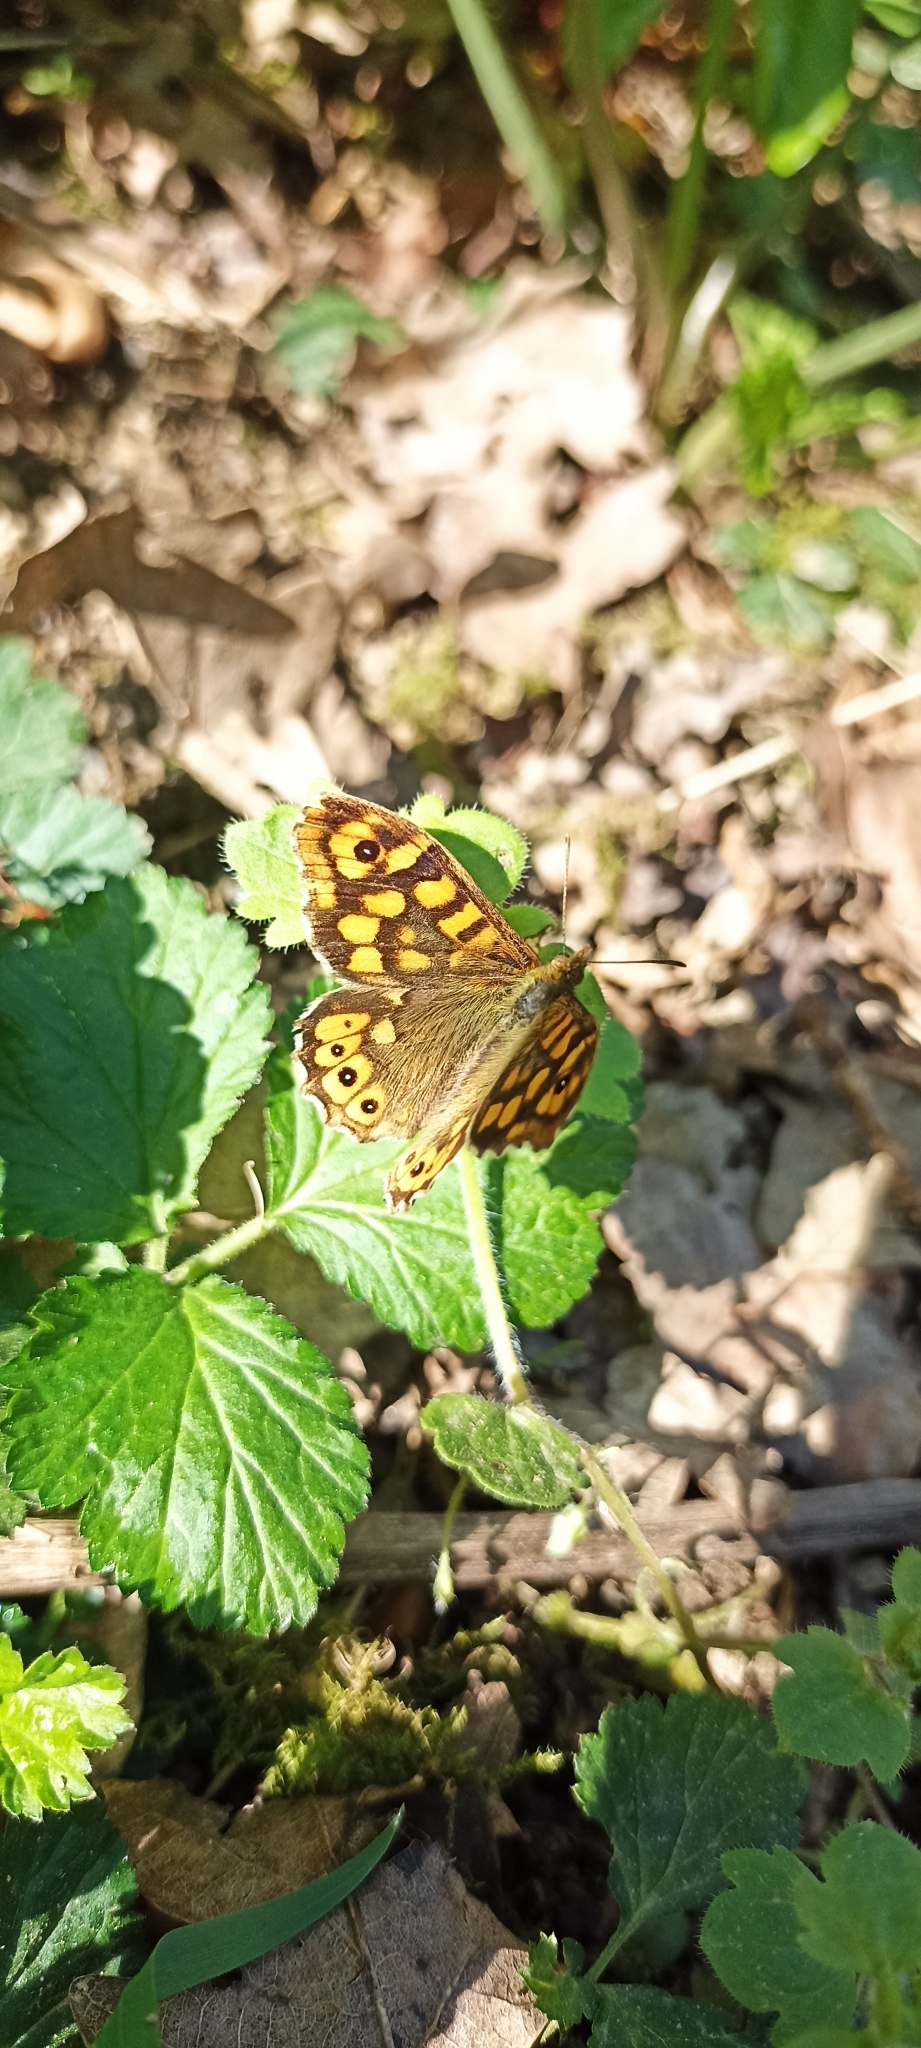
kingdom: Animalia
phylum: Arthropoda
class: Insecta
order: Lepidoptera
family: Nymphalidae
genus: Pararge
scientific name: Pararge aegeria
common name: Speckled wood
